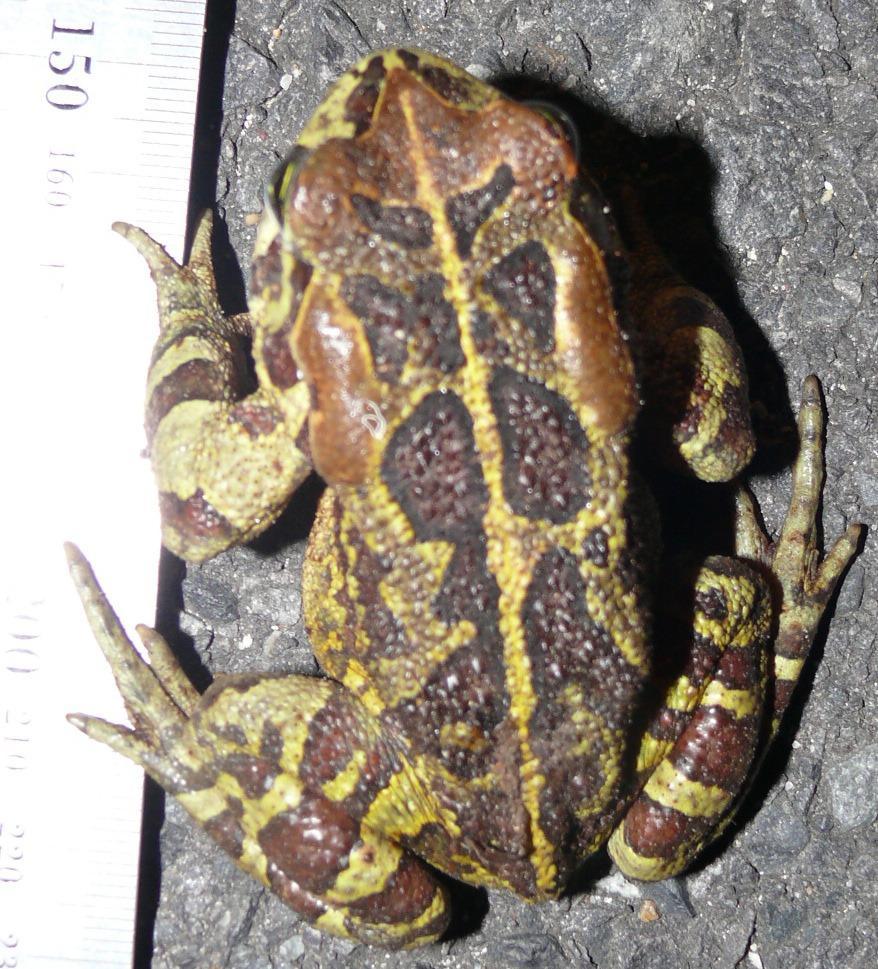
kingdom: Animalia
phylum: Chordata
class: Amphibia
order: Anura
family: Bufonidae
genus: Sclerophrys
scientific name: Sclerophrys pantherina
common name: Panther toad
